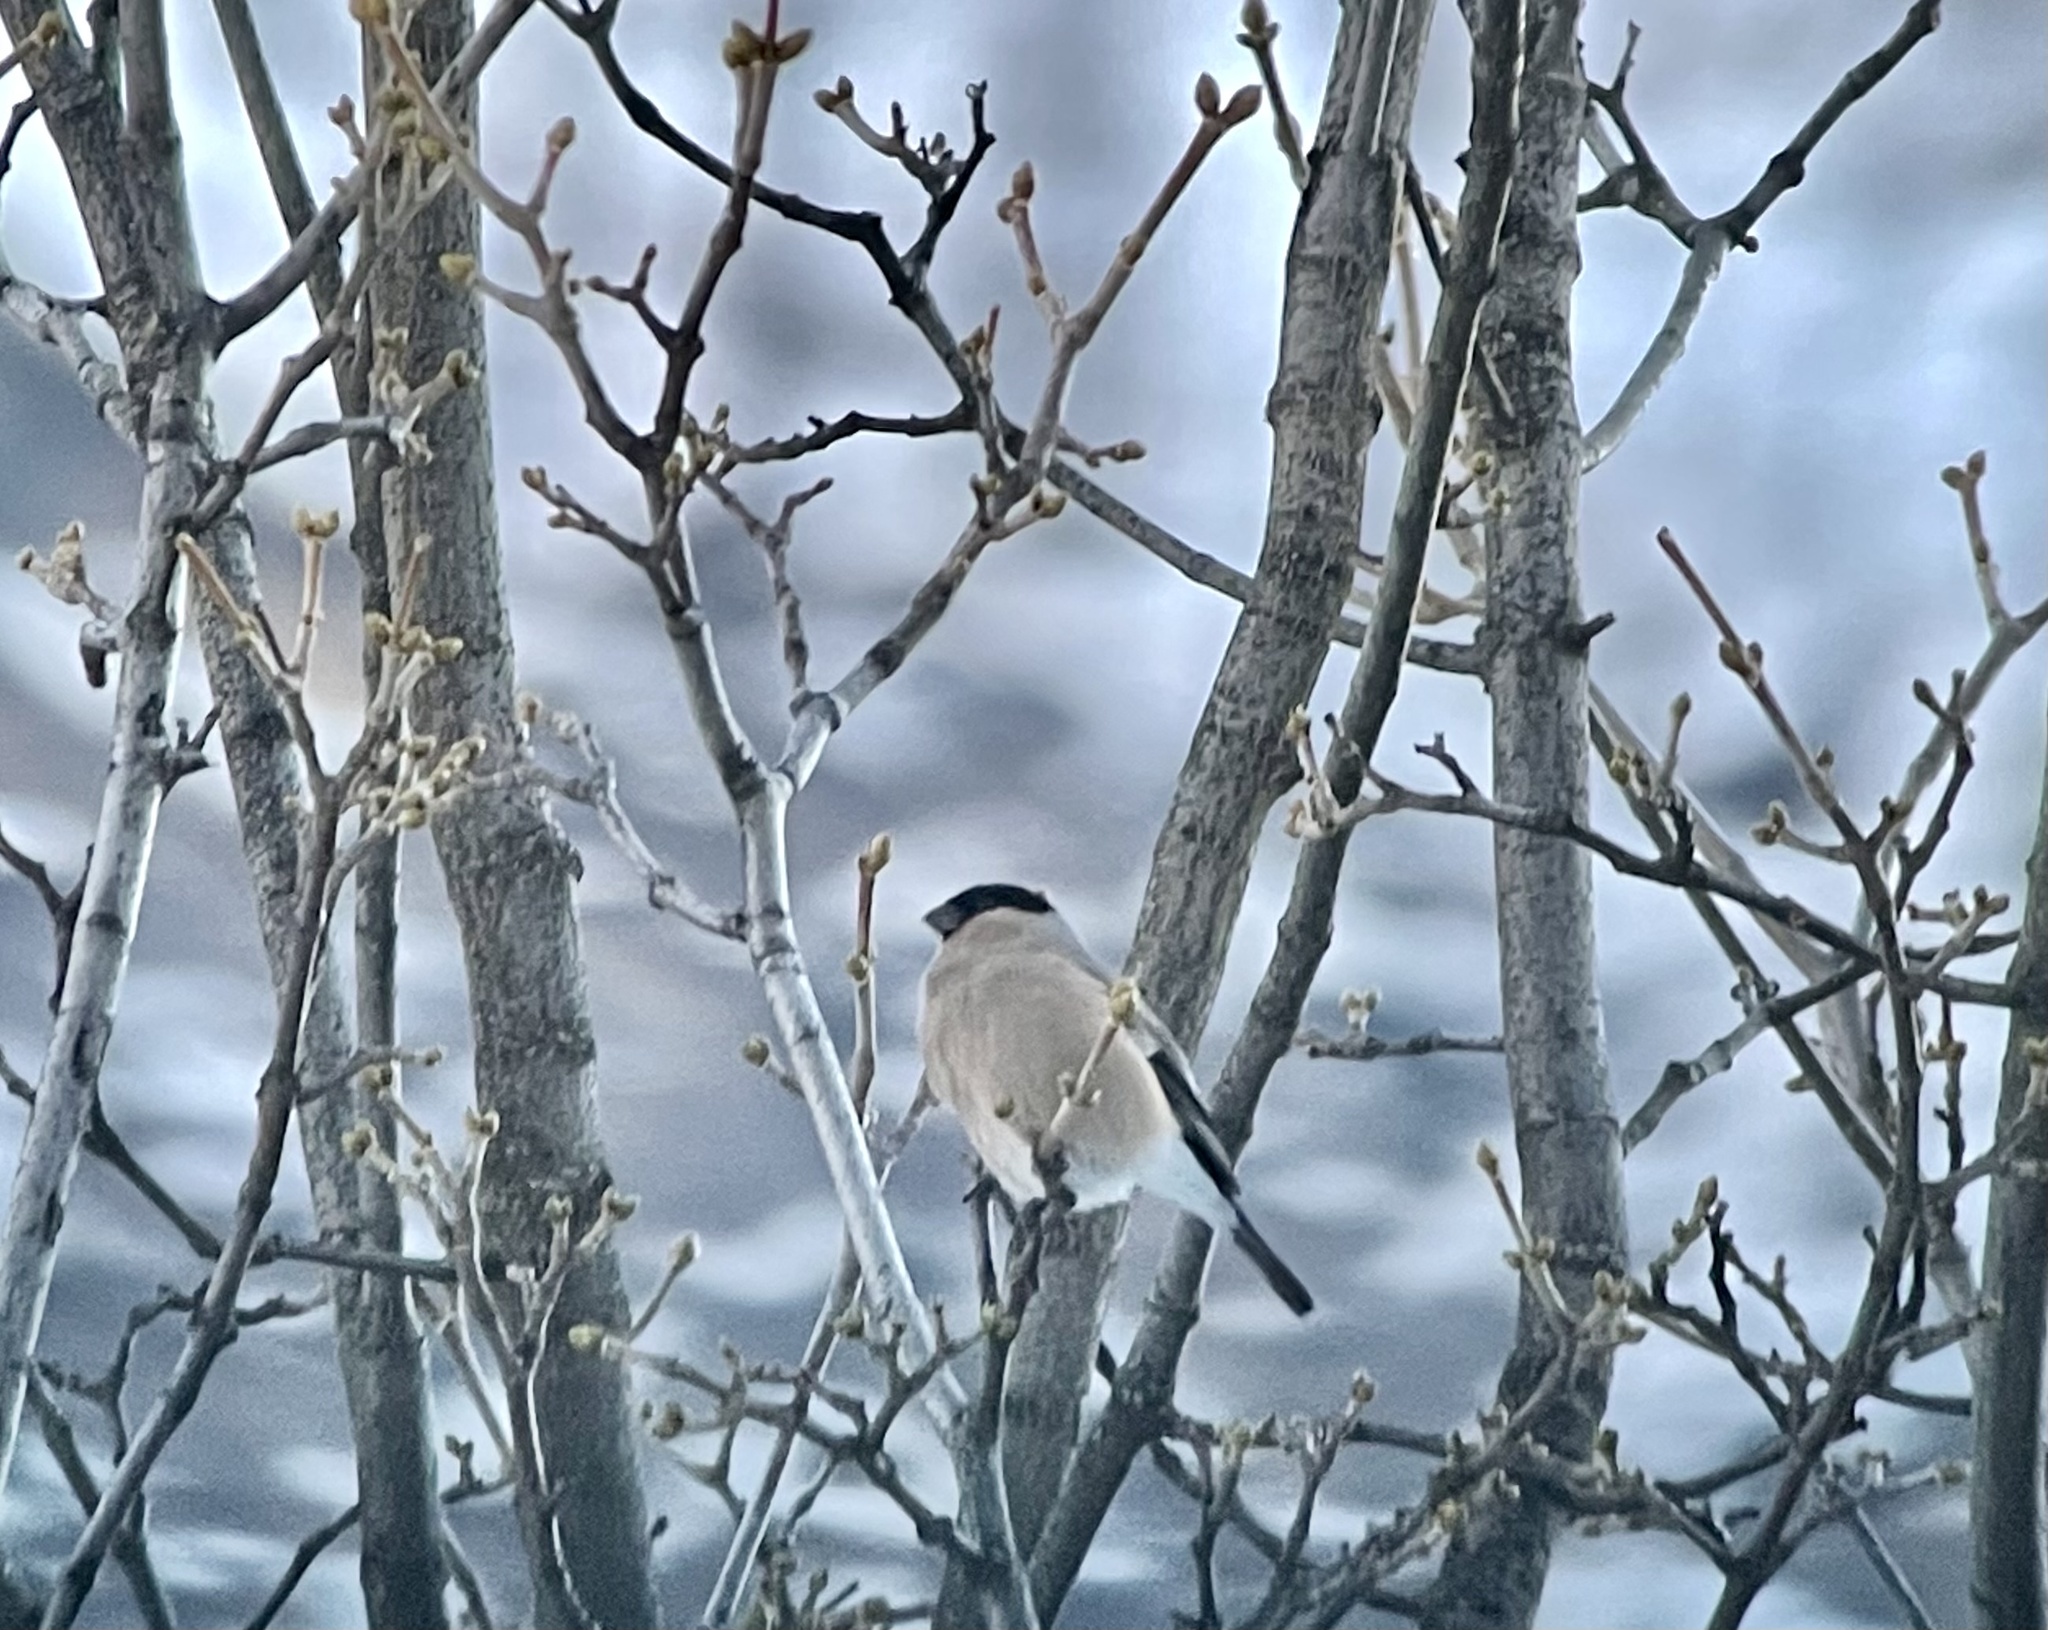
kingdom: Animalia
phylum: Chordata
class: Aves
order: Passeriformes
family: Fringillidae
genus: Pyrrhula
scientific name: Pyrrhula pyrrhula
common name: Eurasian bullfinch
